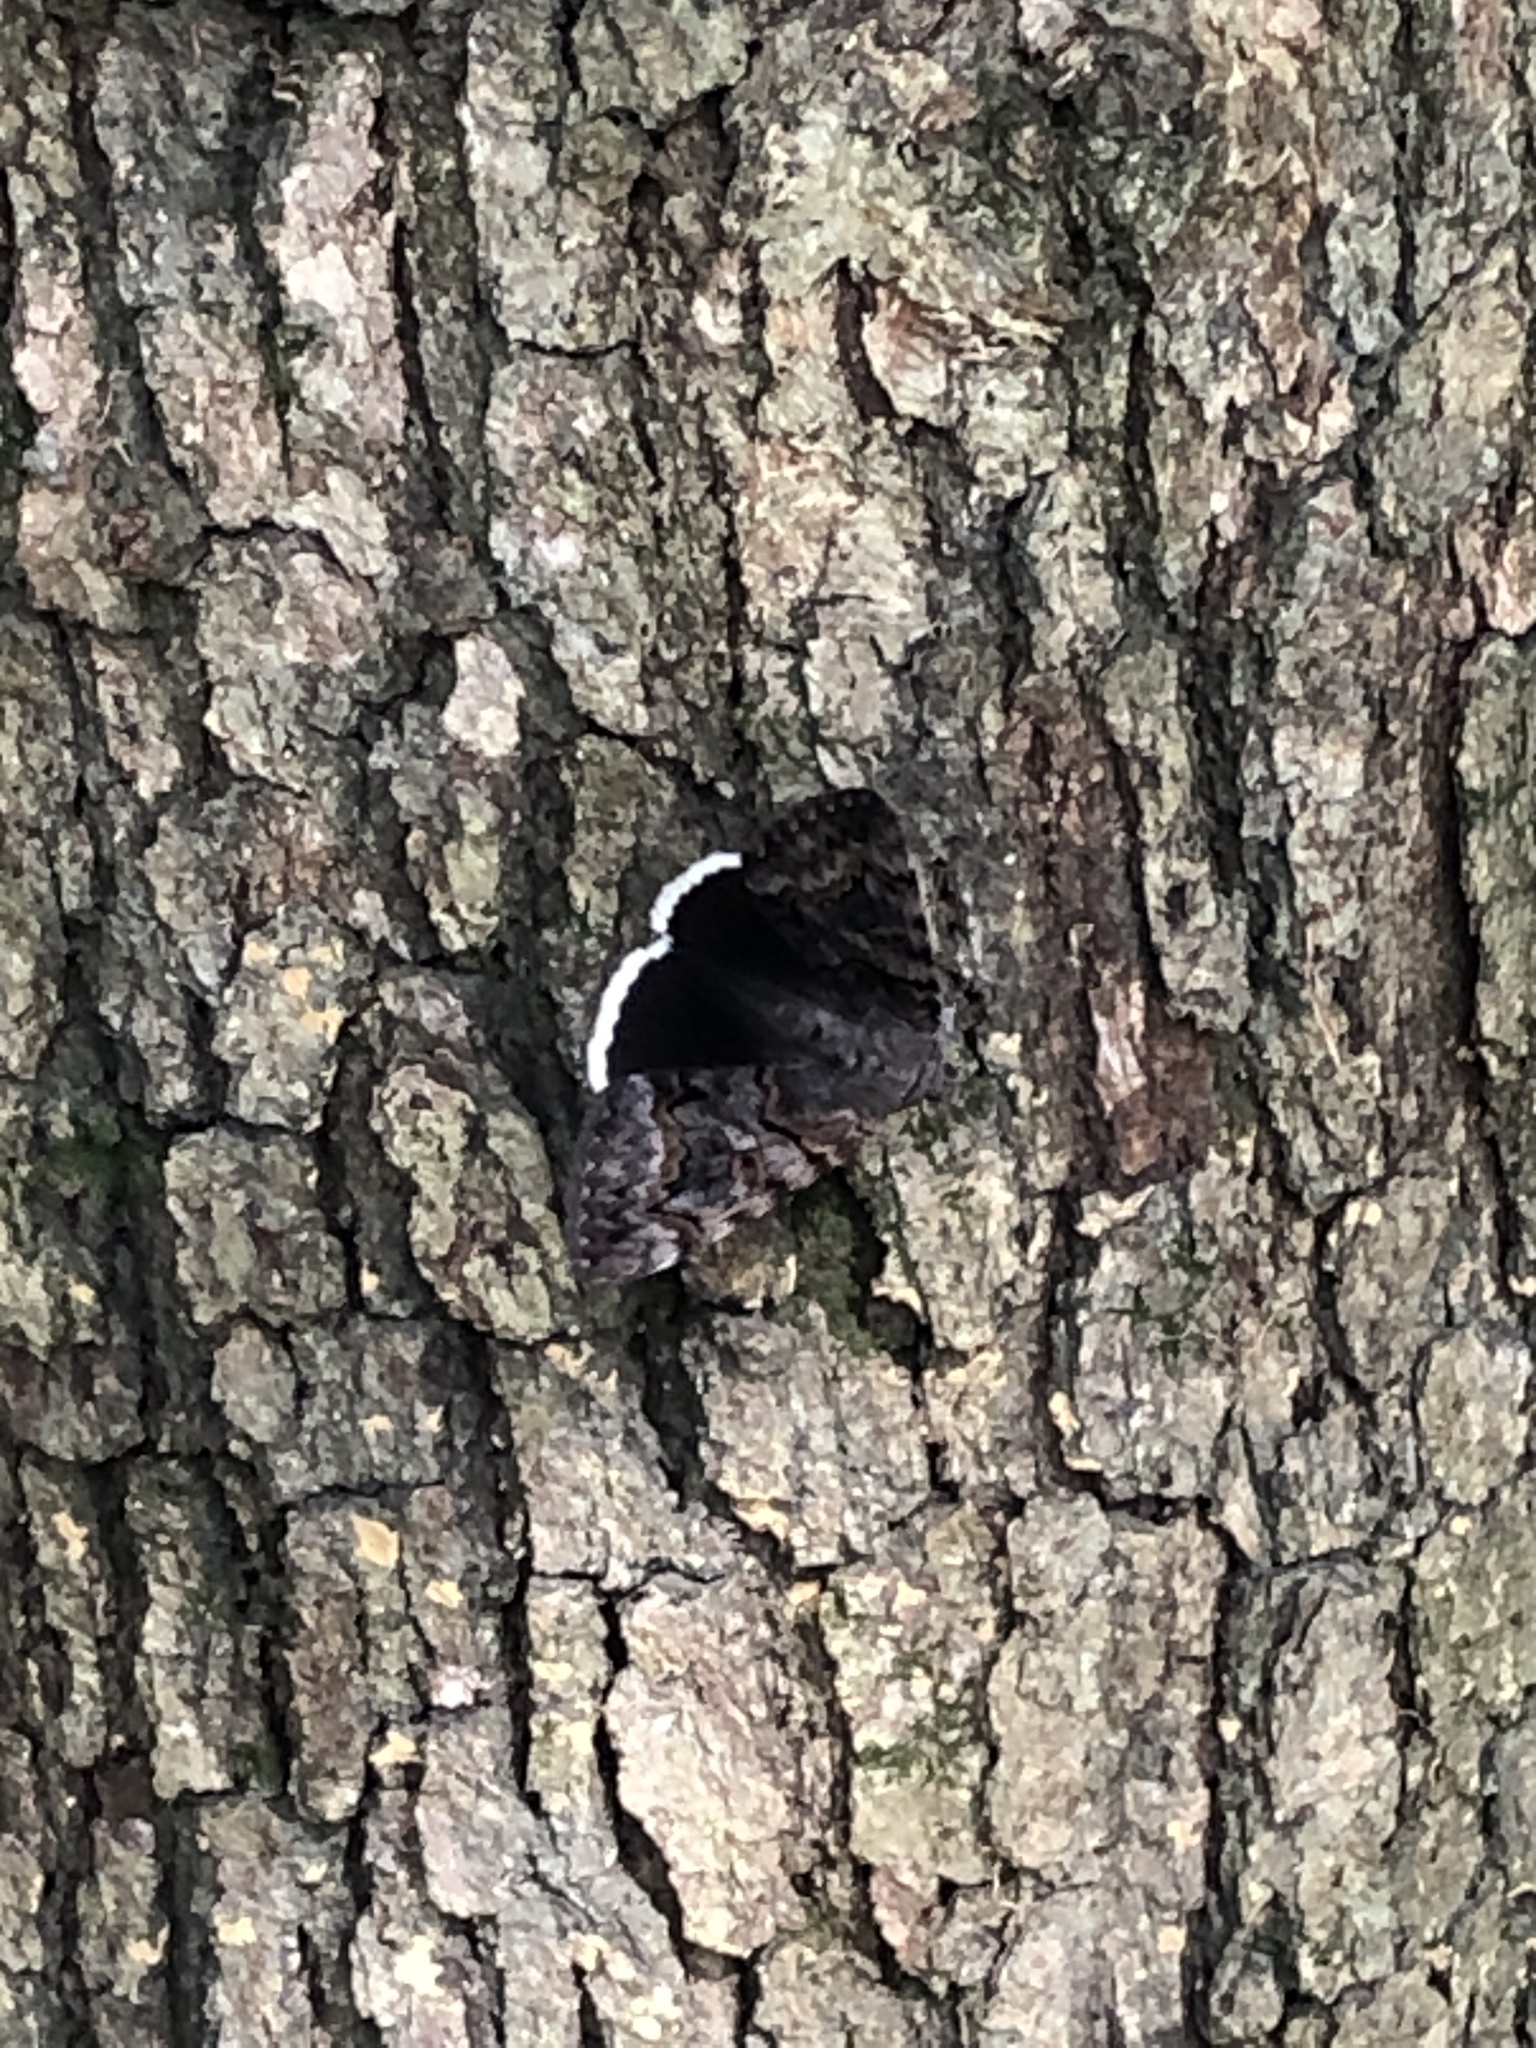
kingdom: Animalia
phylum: Arthropoda
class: Insecta
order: Lepidoptera
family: Erebidae
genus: Catocala
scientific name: Catocala epione
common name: Epione underwing
